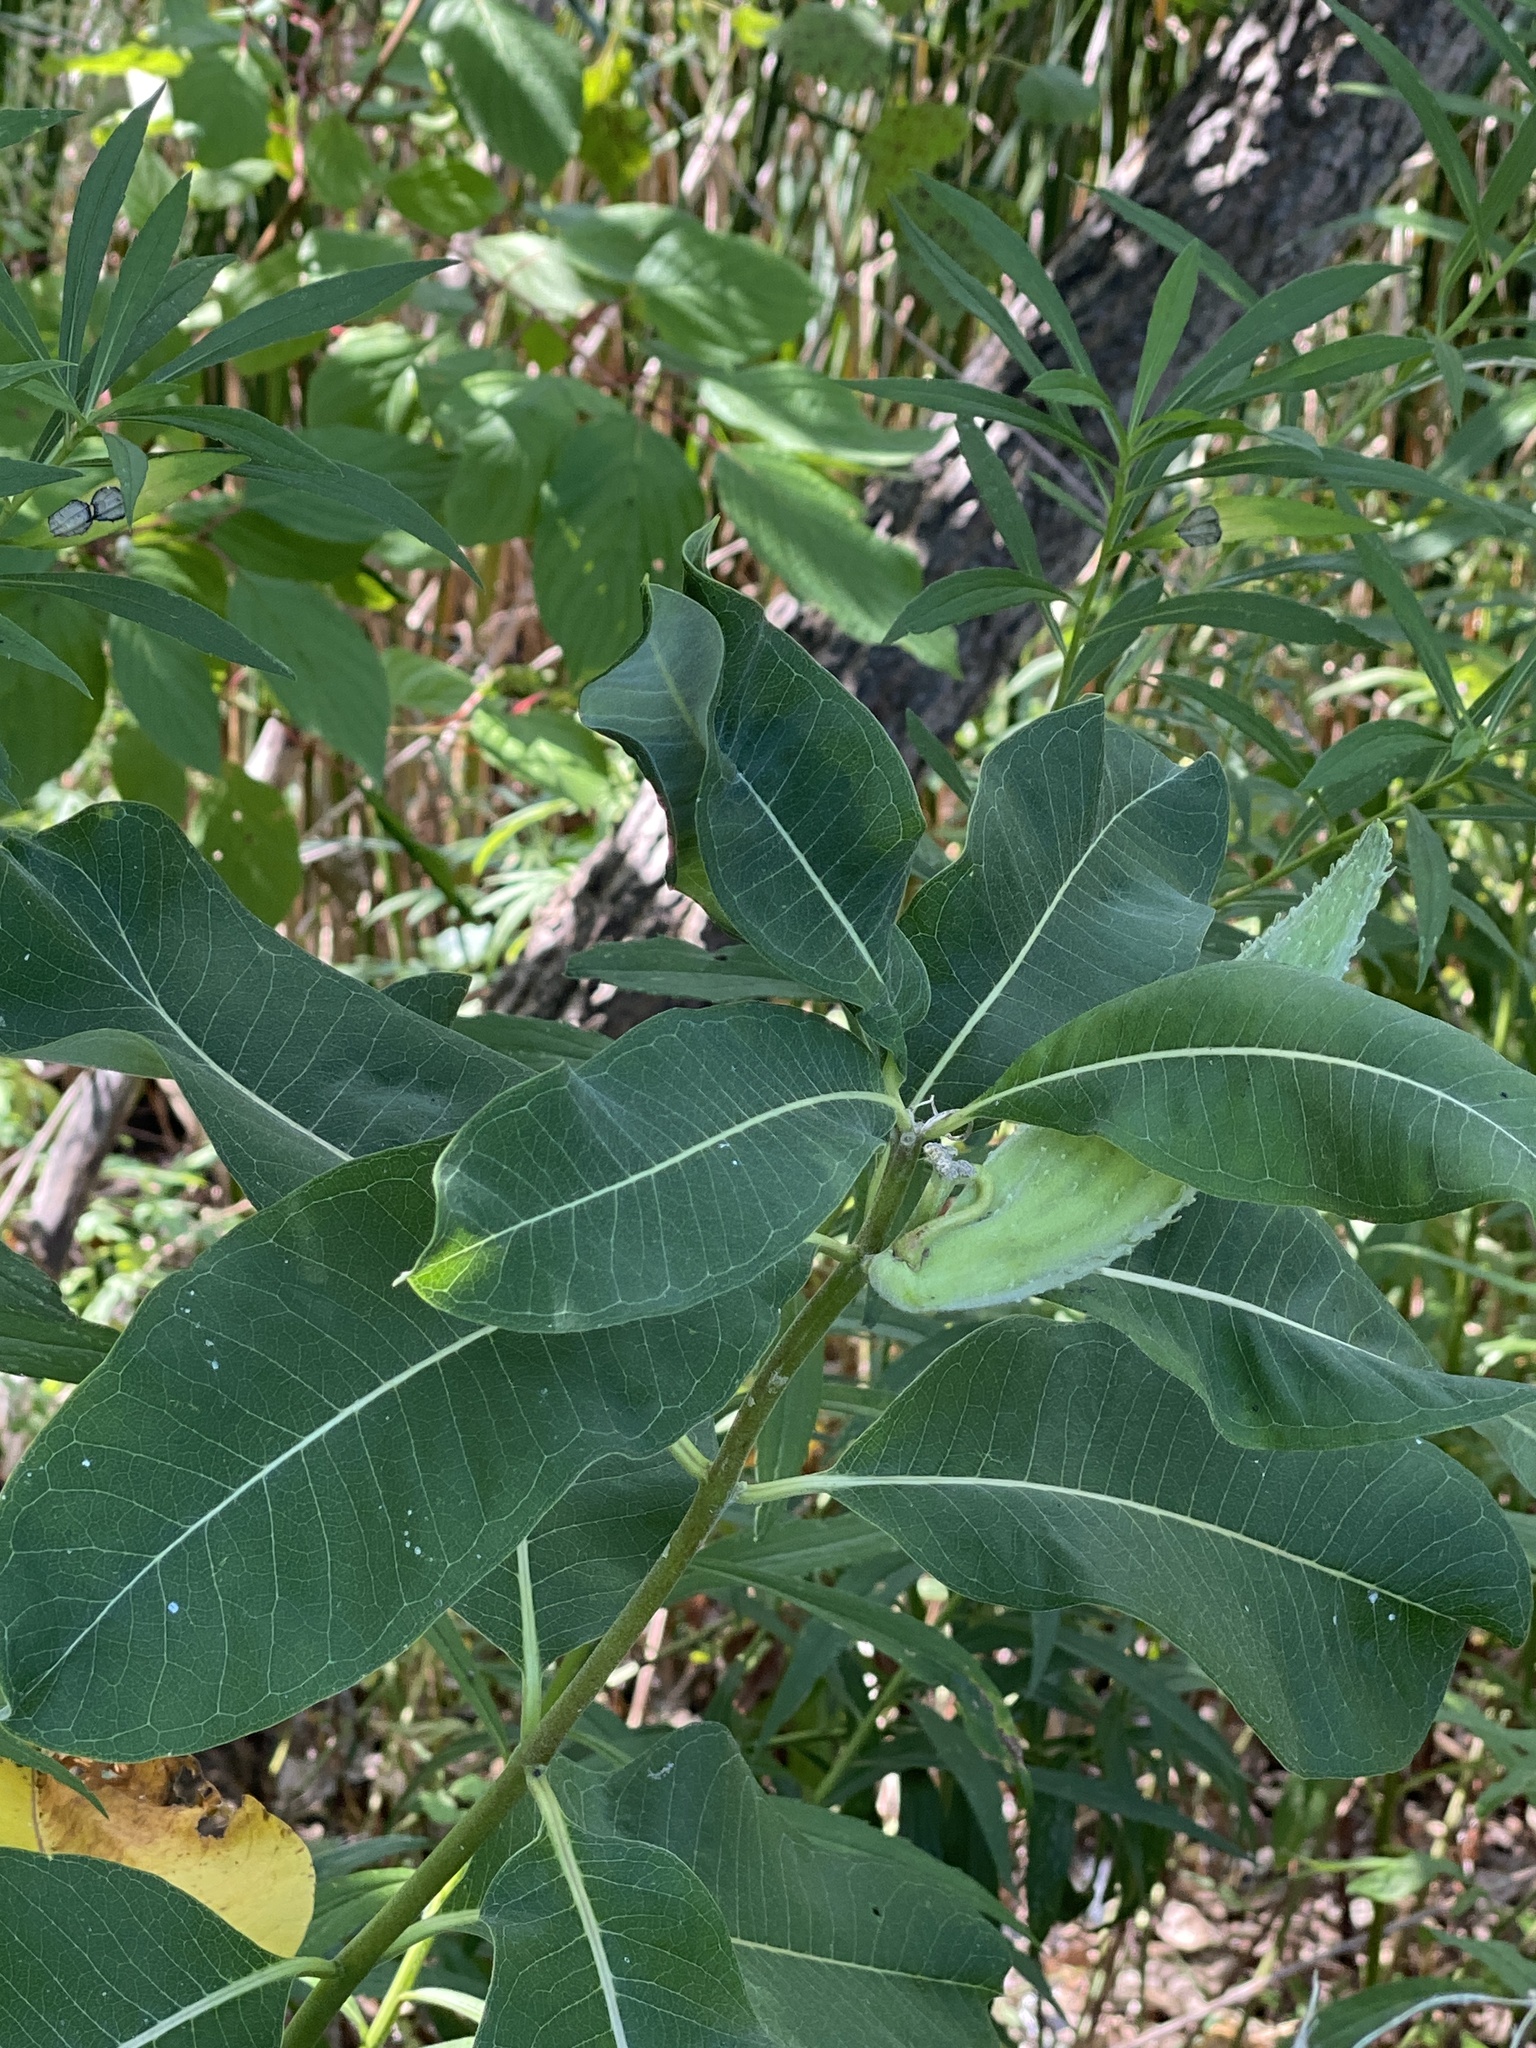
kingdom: Plantae
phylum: Tracheophyta
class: Magnoliopsida
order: Gentianales
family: Apocynaceae
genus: Asclepias
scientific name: Asclepias syriaca
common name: Common milkweed
